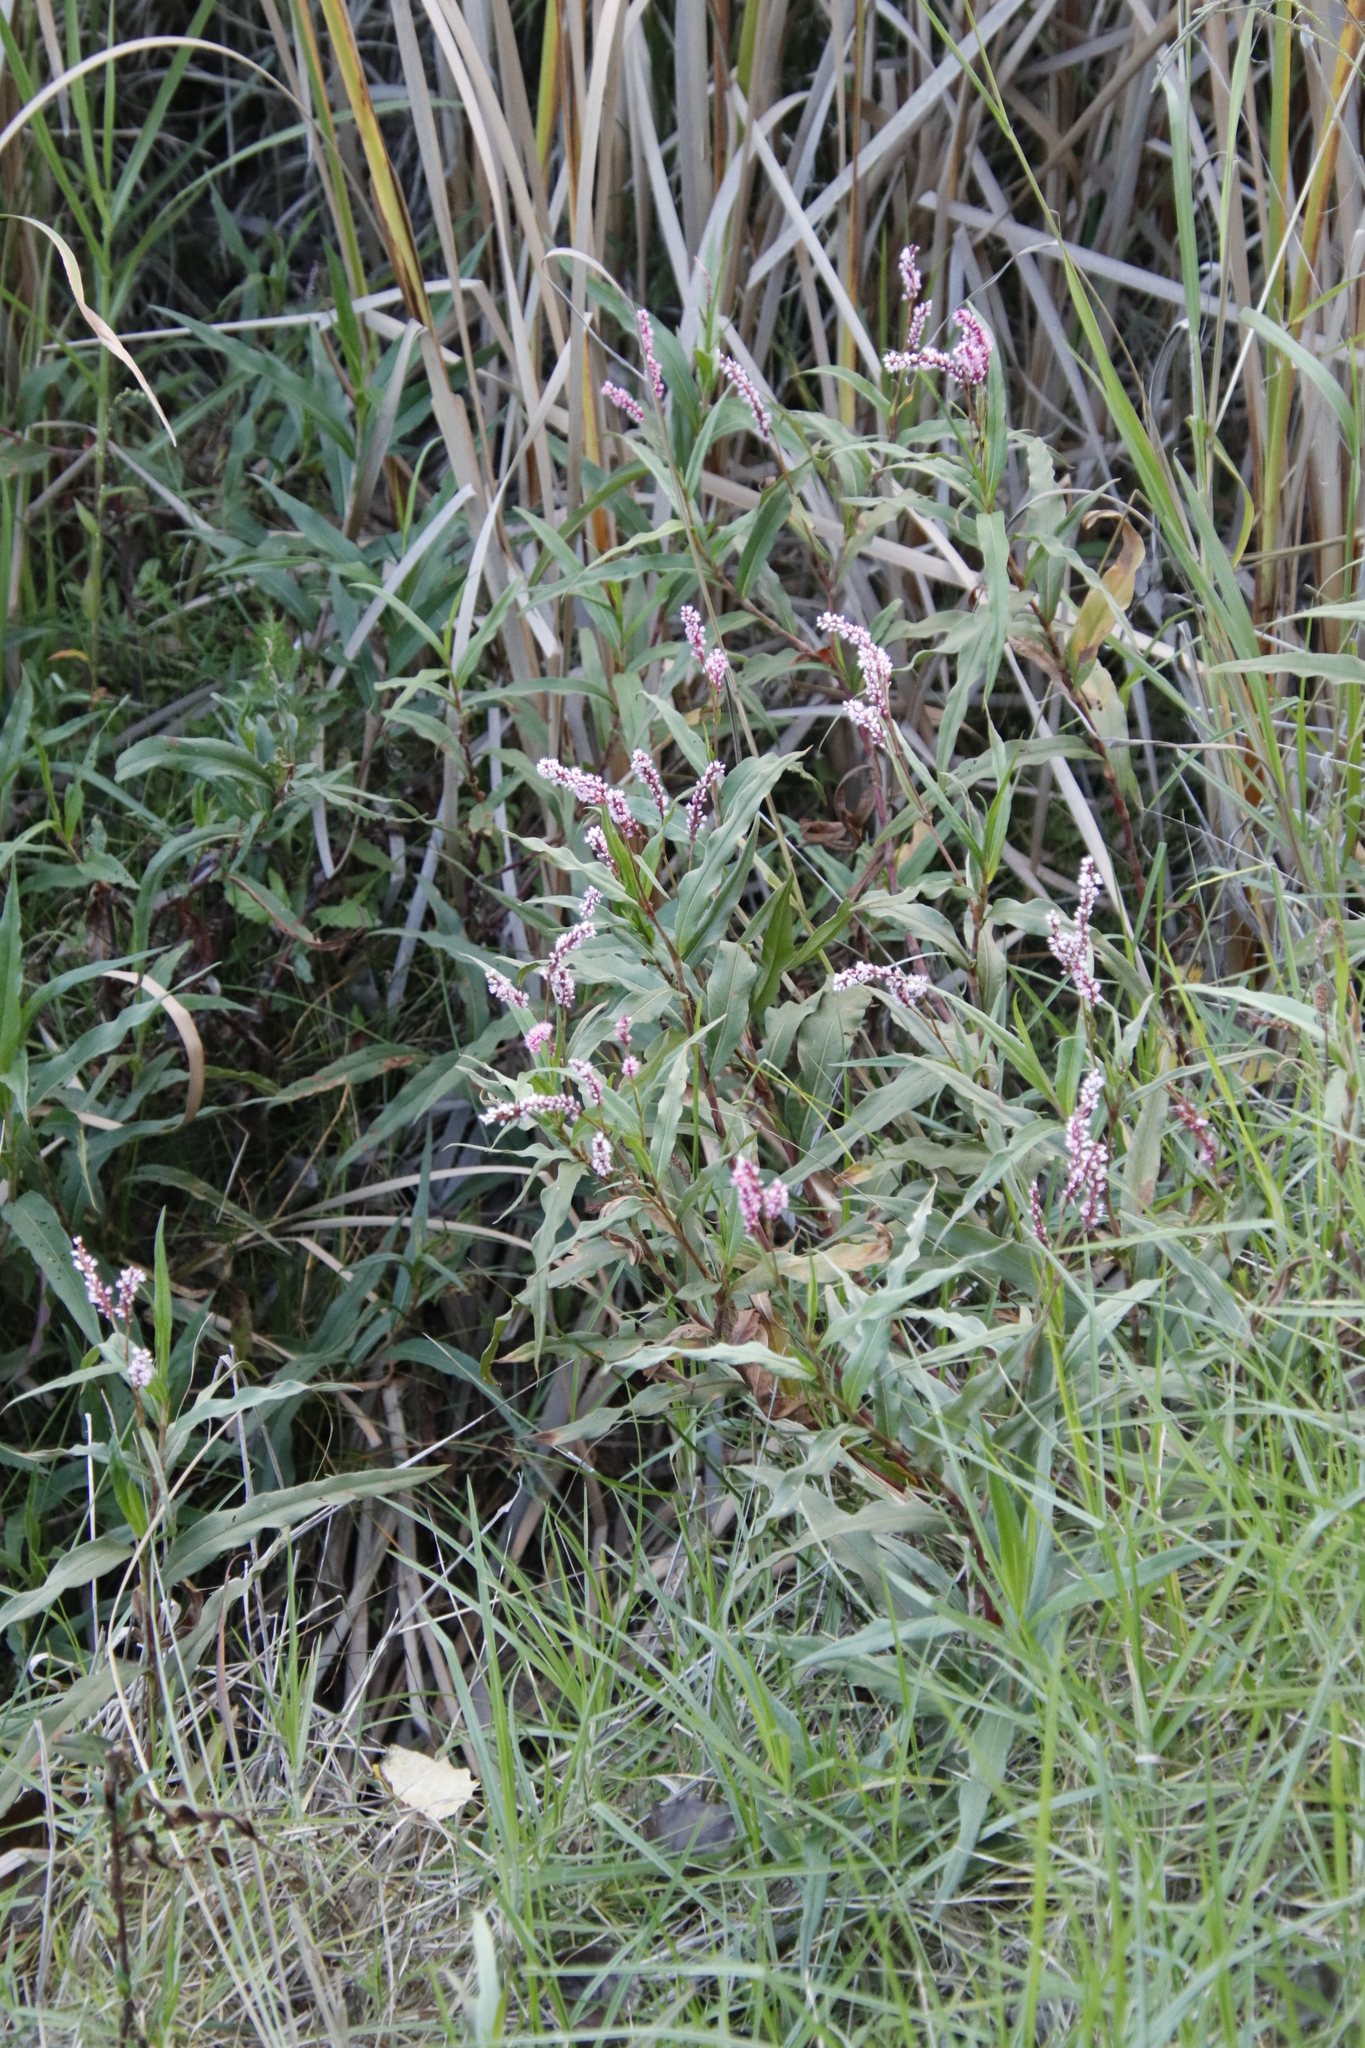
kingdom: Plantae
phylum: Tracheophyta
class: Magnoliopsida
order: Caryophyllales
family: Polygonaceae
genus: Persicaria
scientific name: Persicaria madagascariensis
